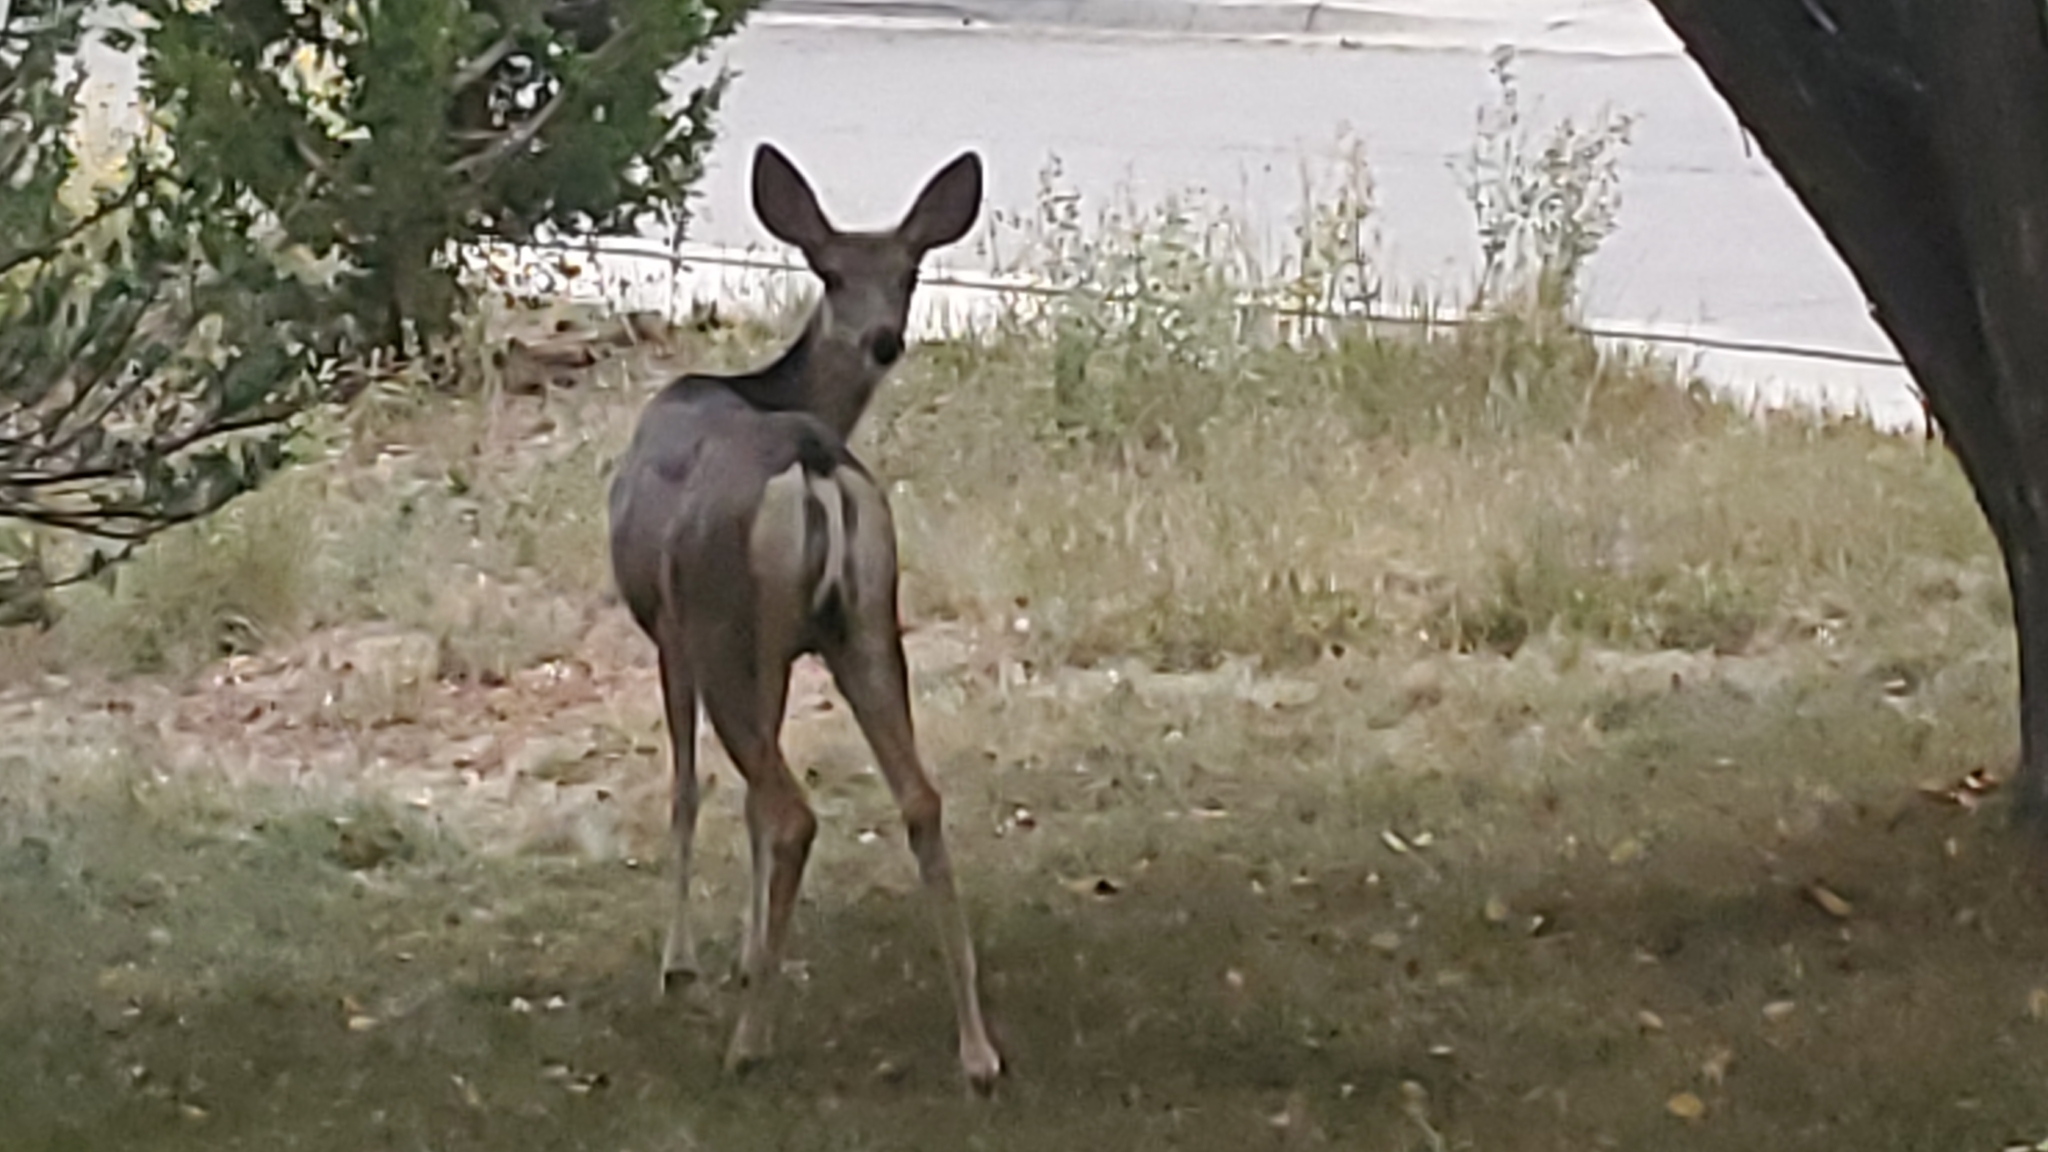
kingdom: Animalia
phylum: Chordata
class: Mammalia
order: Artiodactyla
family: Cervidae
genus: Odocoileus
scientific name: Odocoileus hemionus
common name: Mule deer
